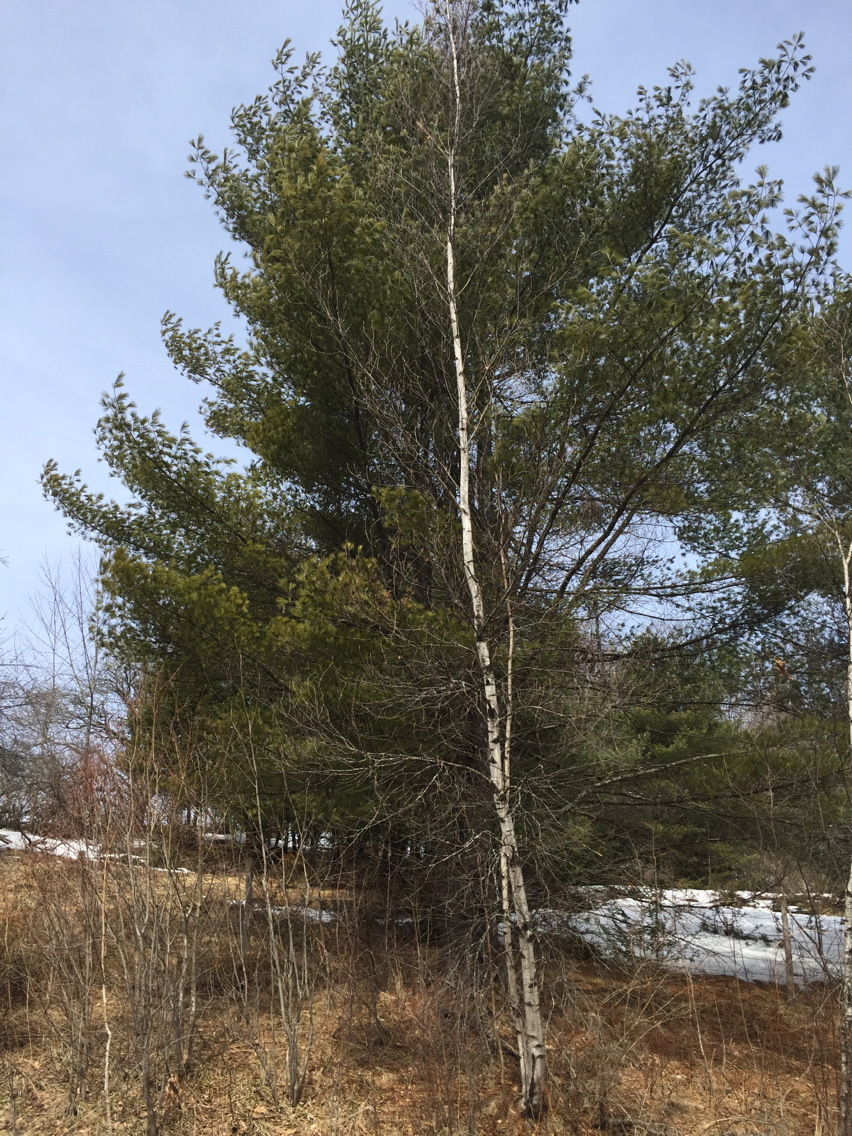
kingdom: Plantae
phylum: Tracheophyta
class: Pinopsida
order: Pinales
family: Pinaceae
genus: Pinus
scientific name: Pinus strobus
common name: Weymouth pine
